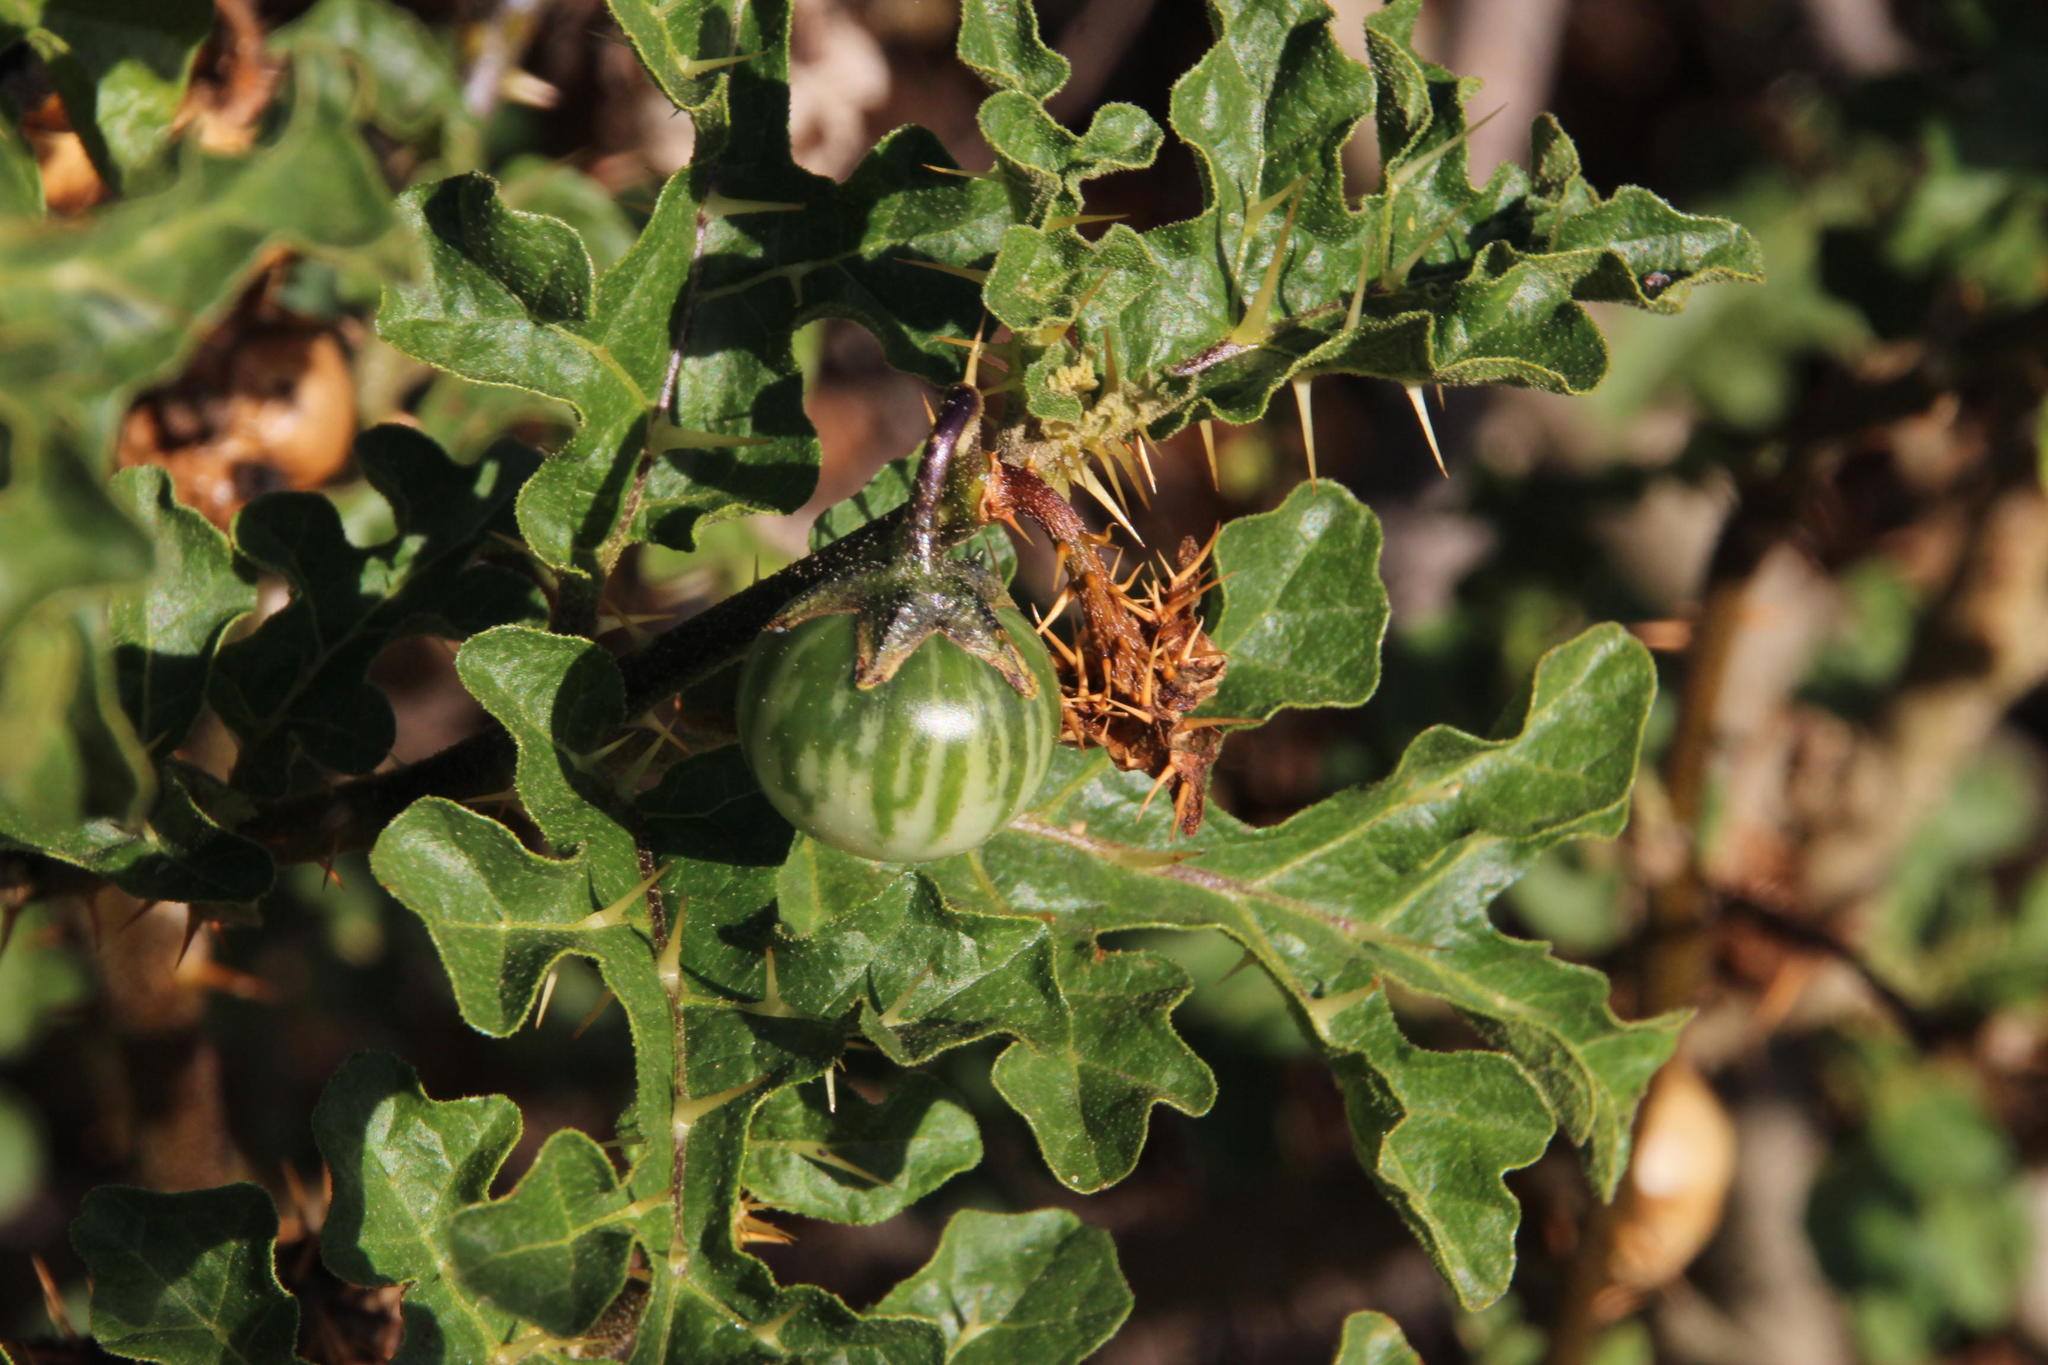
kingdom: Plantae
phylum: Tracheophyta
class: Magnoliopsida
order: Solanales
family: Solanaceae
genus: Solanum
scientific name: Solanum linnaeanum
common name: Nightshade
